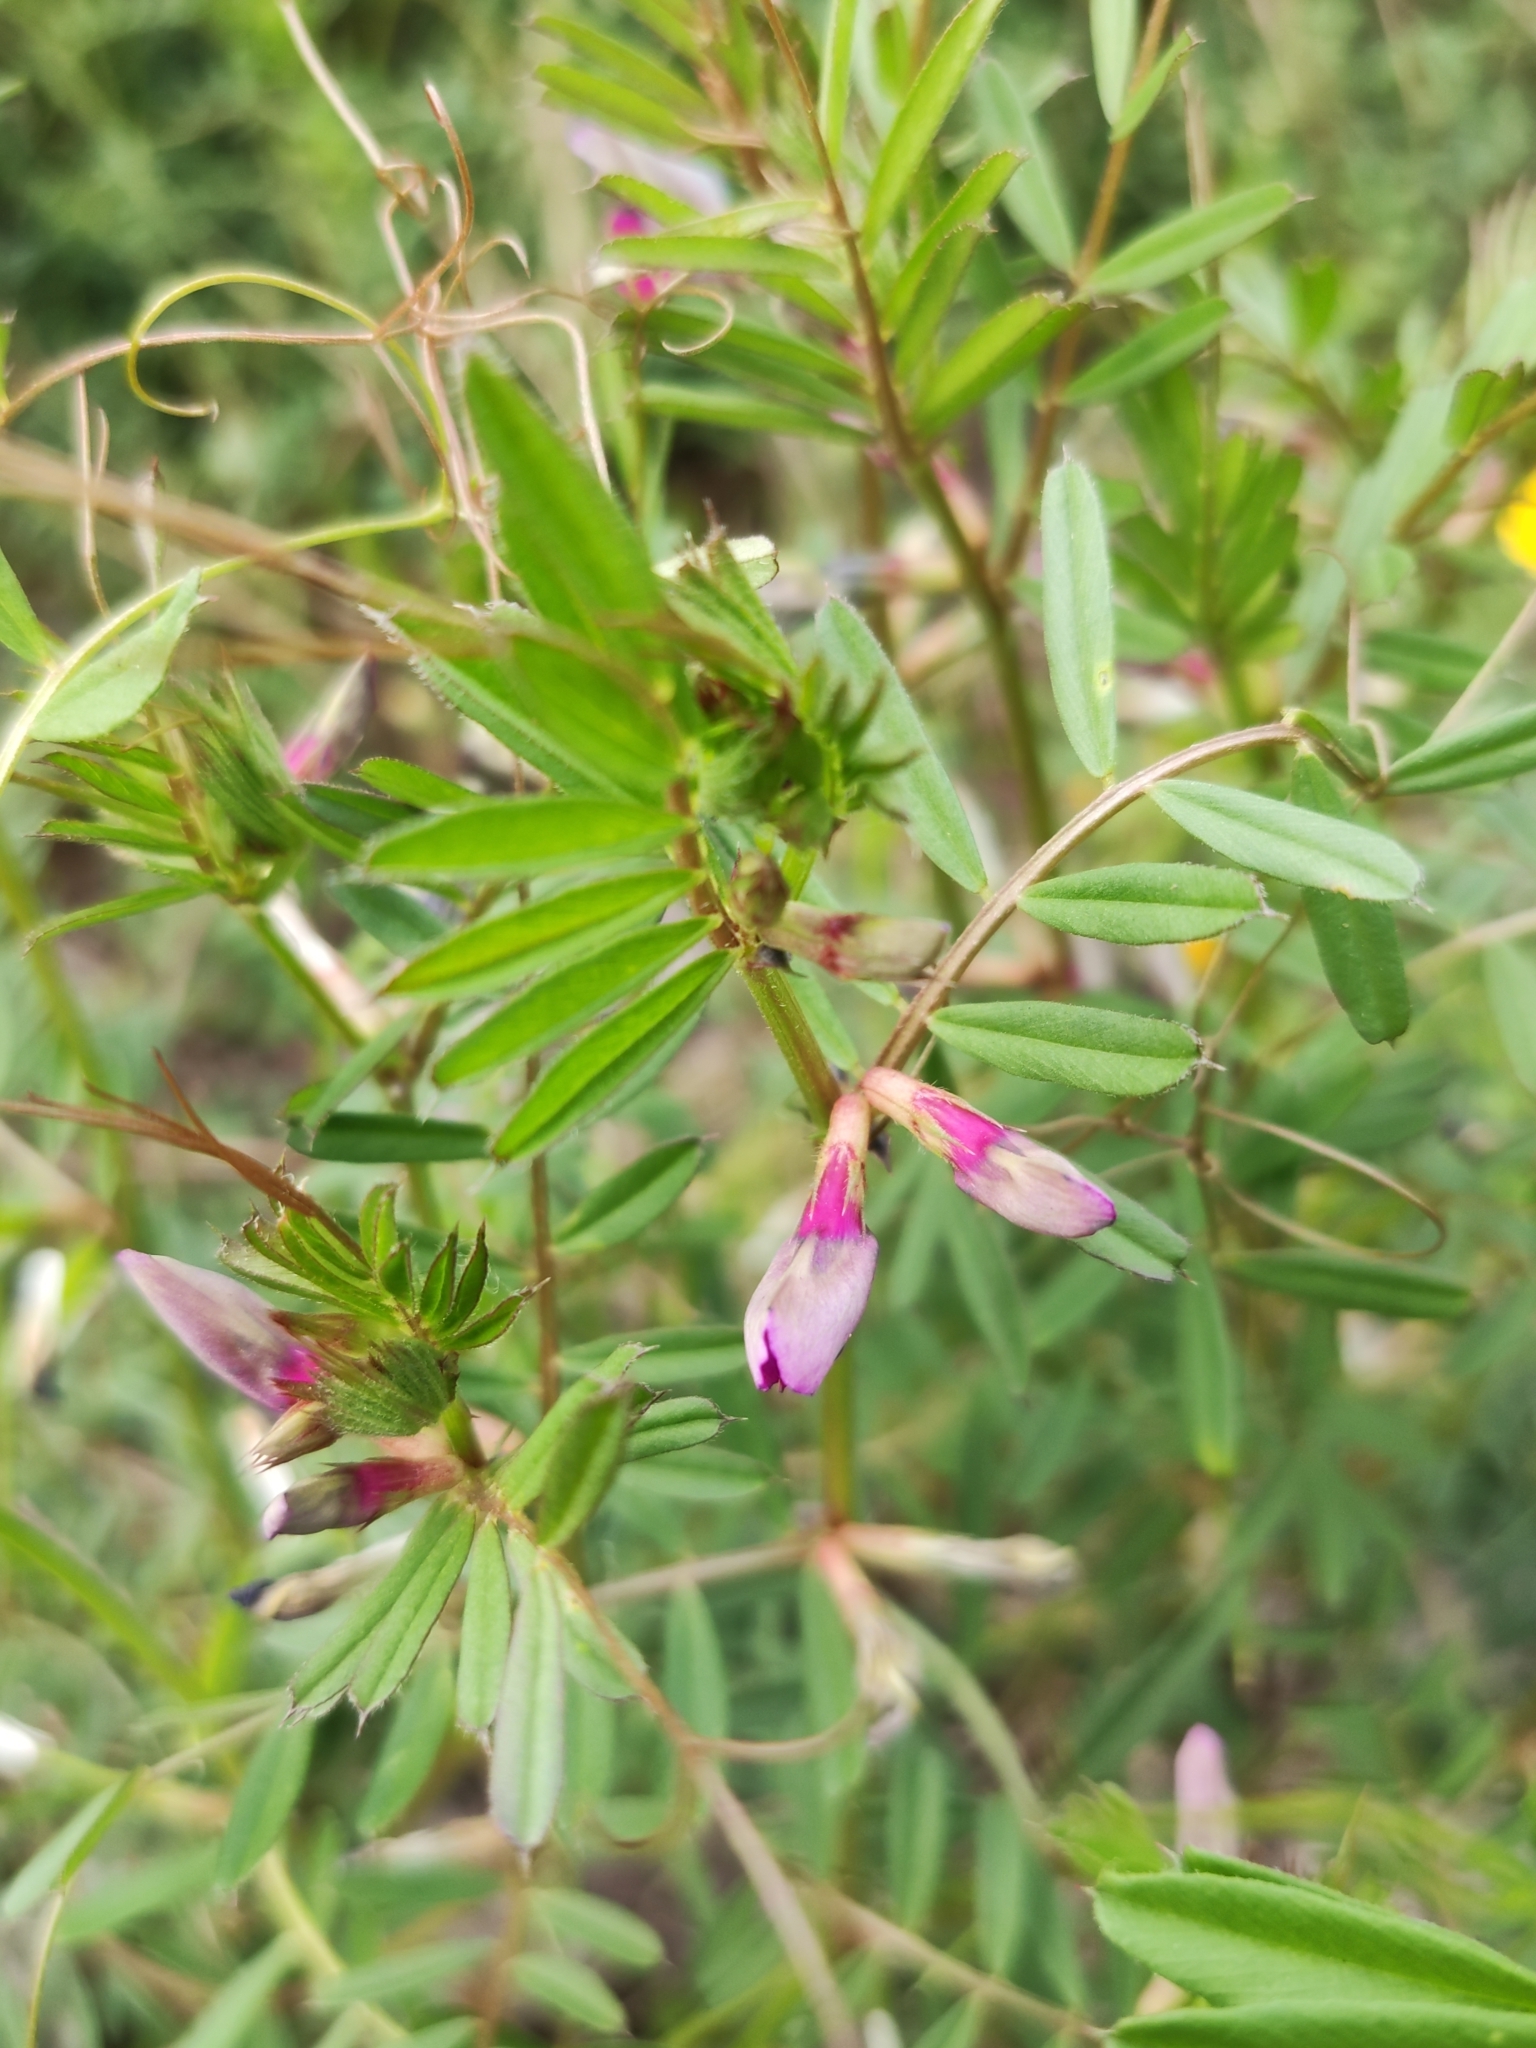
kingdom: Plantae
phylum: Tracheophyta
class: Magnoliopsida
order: Fabales
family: Fabaceae
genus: Vicia
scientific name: Vicia sativa
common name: Garden vetch
